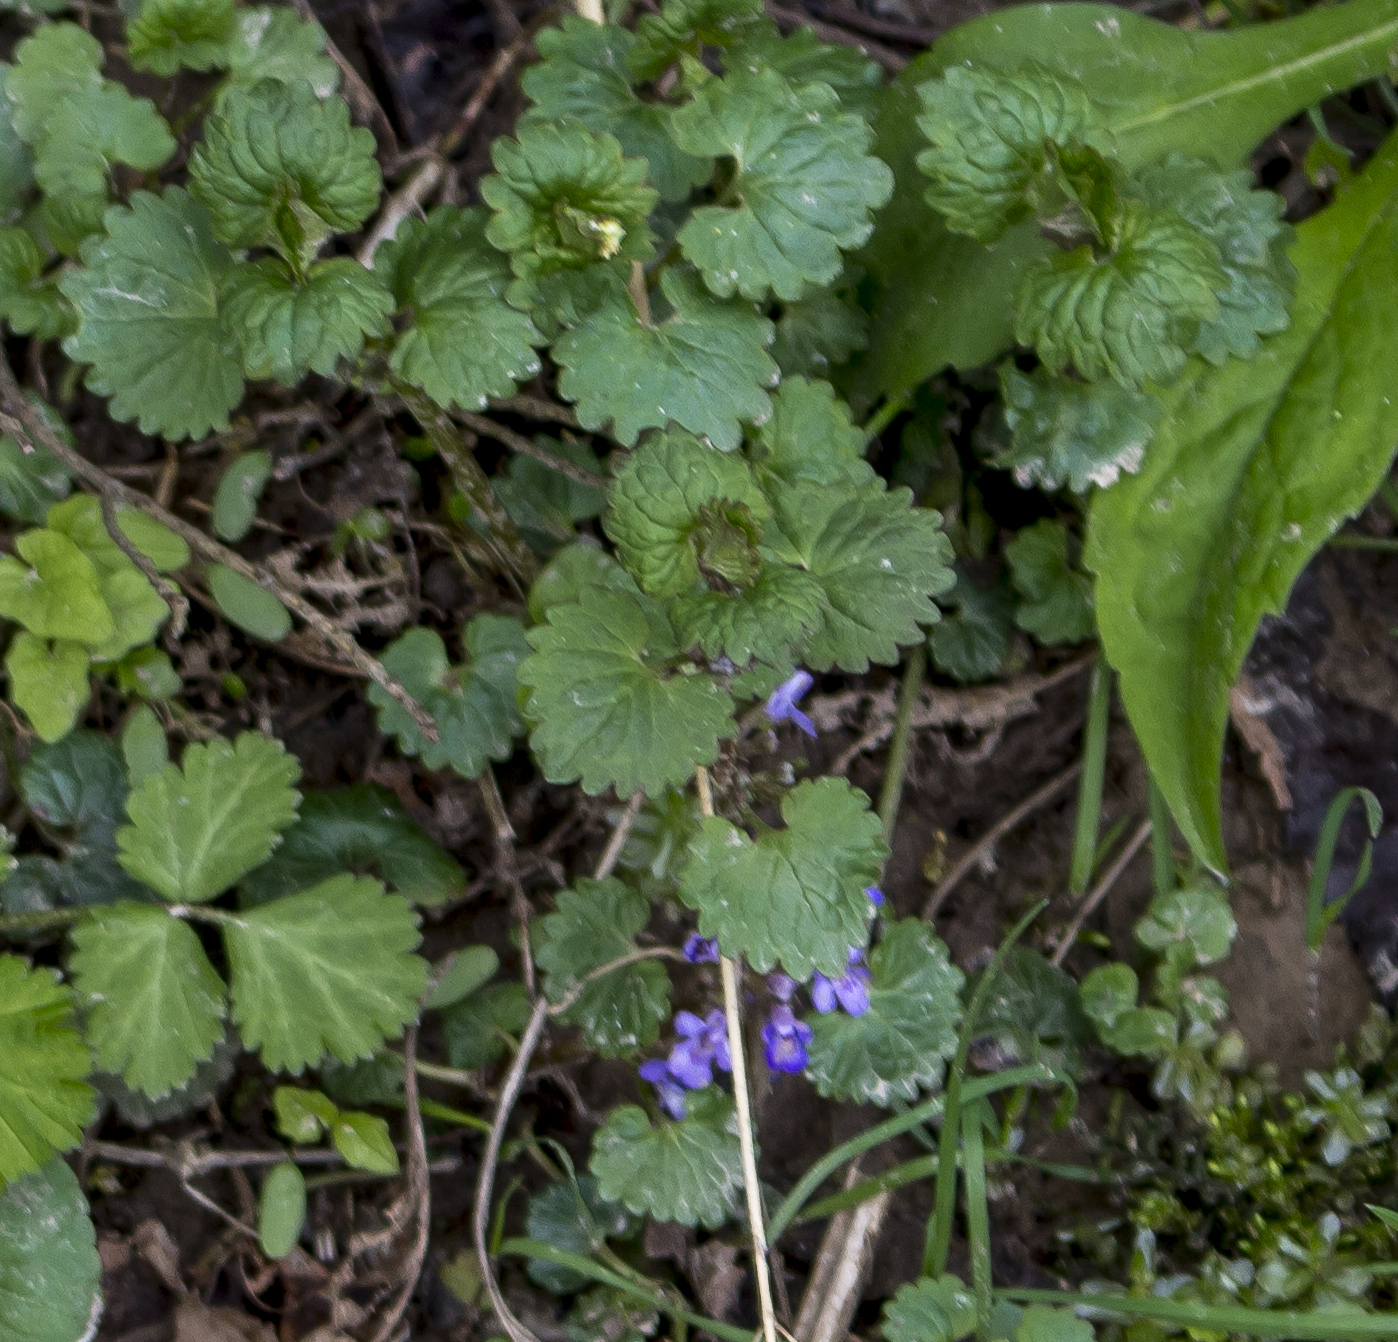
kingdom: Plantae
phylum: Tracheophyta
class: Magnoliopsida
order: Lamiales
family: Lamiaceae
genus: Glechoma
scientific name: Glechoma hederacea
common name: Ground ivy
